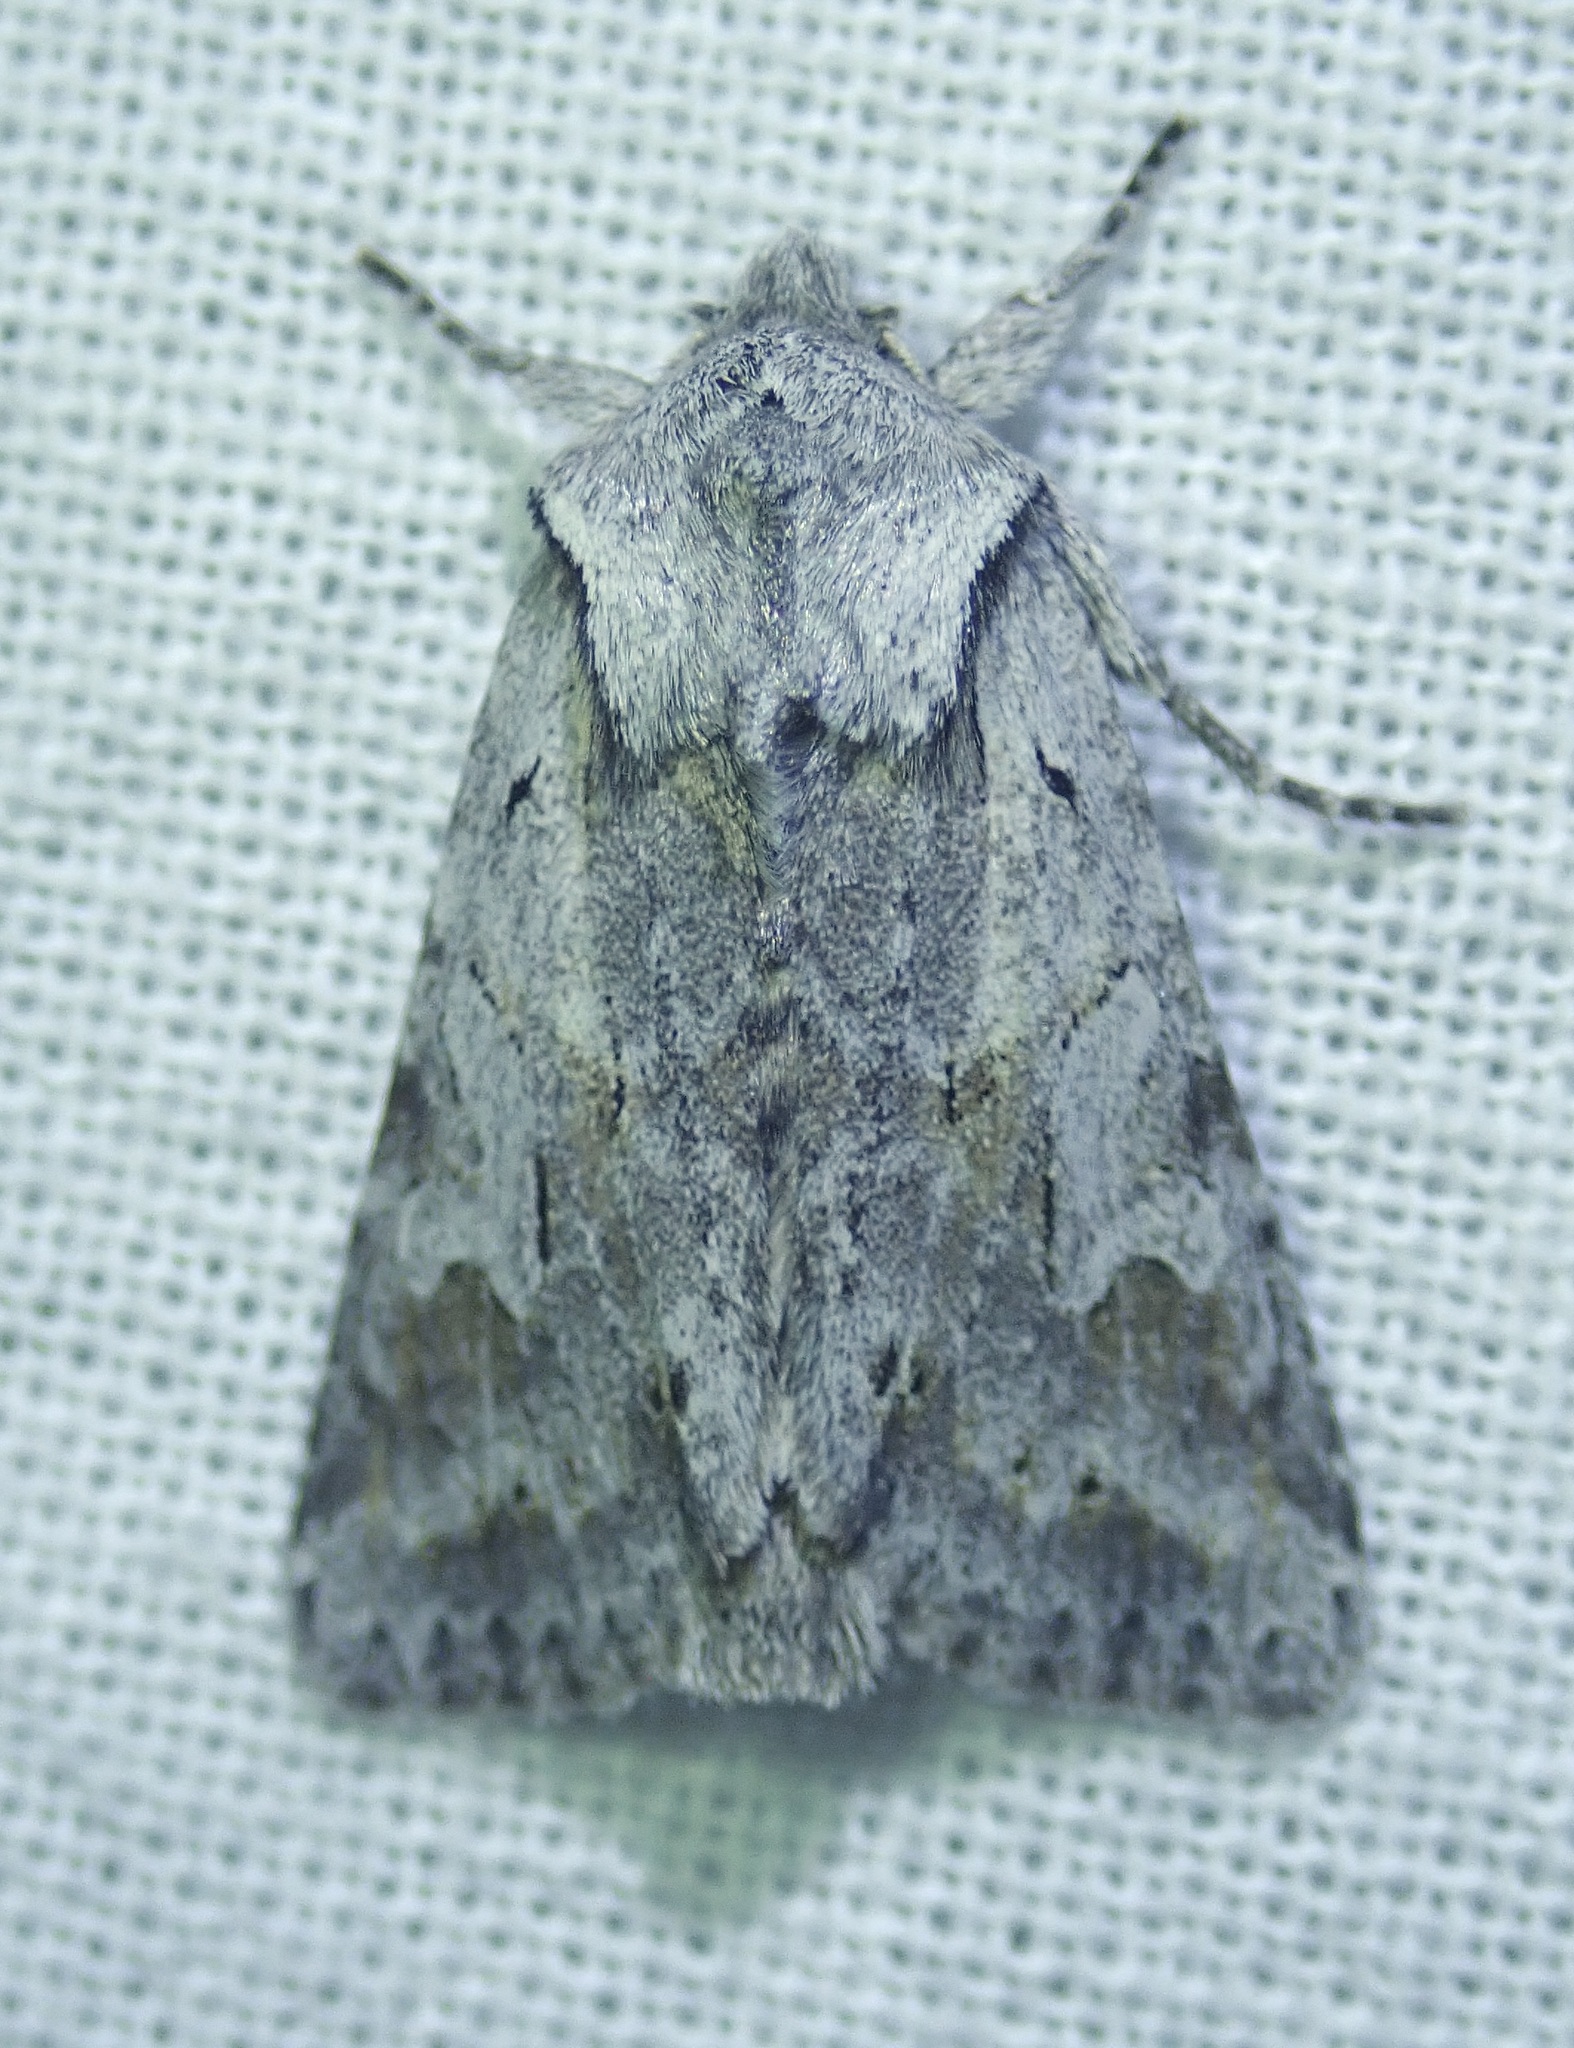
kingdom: Animalia
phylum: Arthropoda
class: Insecta
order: Lepidoptera
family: Noctuidae
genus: Lacinipolia
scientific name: Lacinipolia patalis
